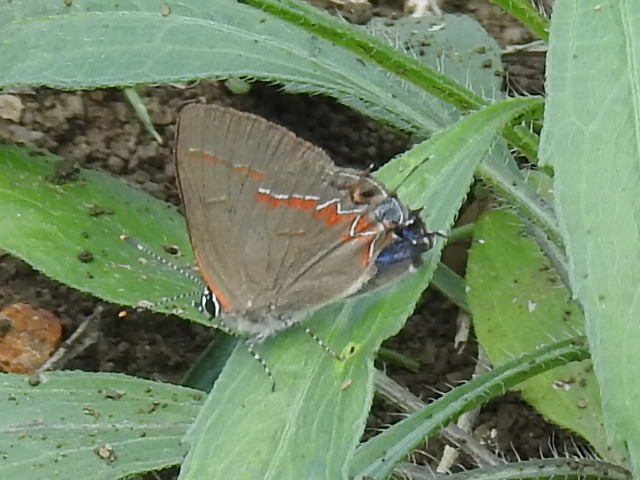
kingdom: Animalia
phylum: Arthropoda
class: Insecta
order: Lepidoptera
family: Lycaenidae
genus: Calycopis
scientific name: Calycopis isobeon
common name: Dusky-blue groundstreak
